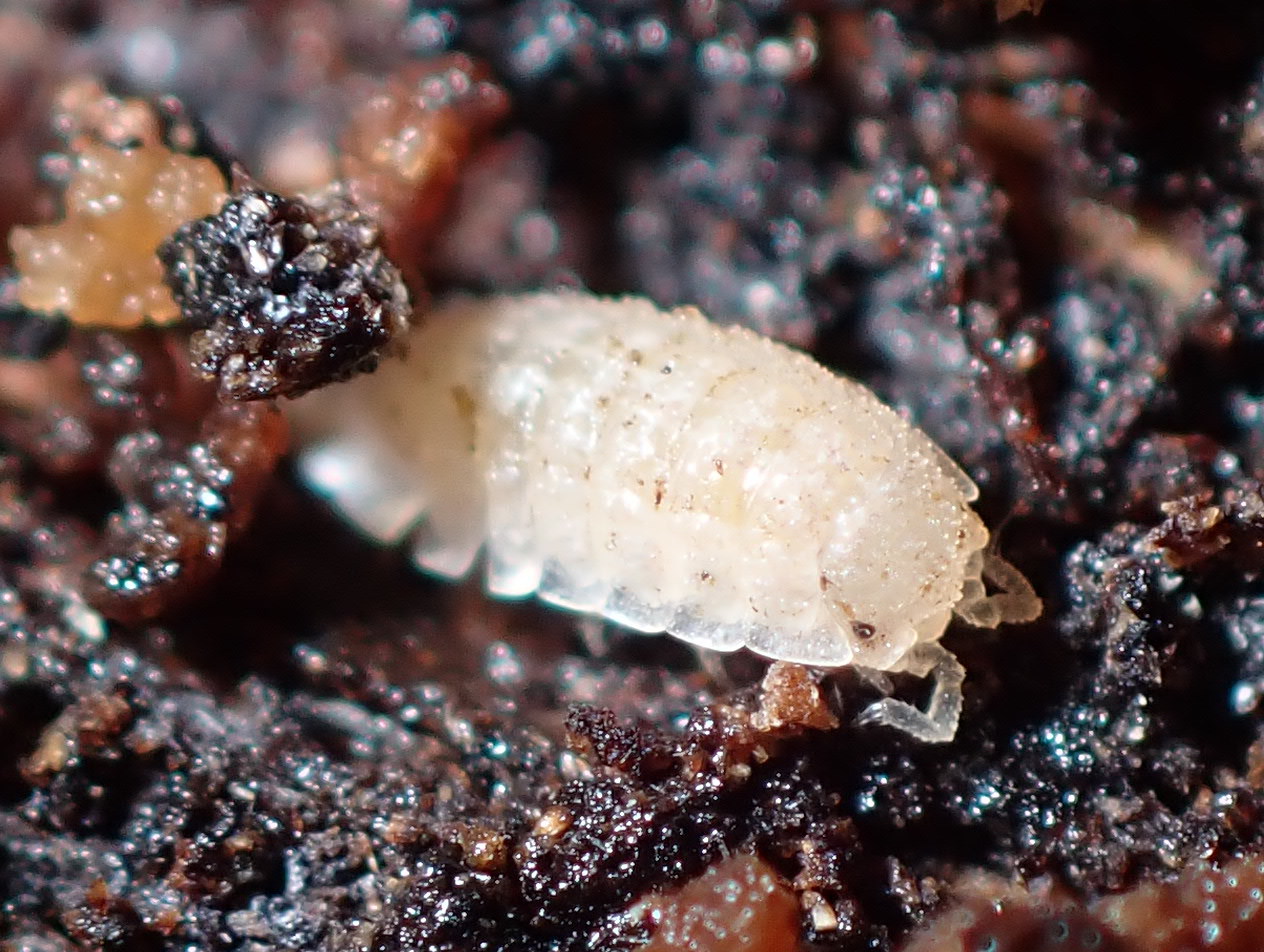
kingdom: Animalia
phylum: Arthropoda
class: Malacostraca
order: Isopoda
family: Trichoniscidae
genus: Haplophthalmus
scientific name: Haplophthalmus danicus
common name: Pillbug
